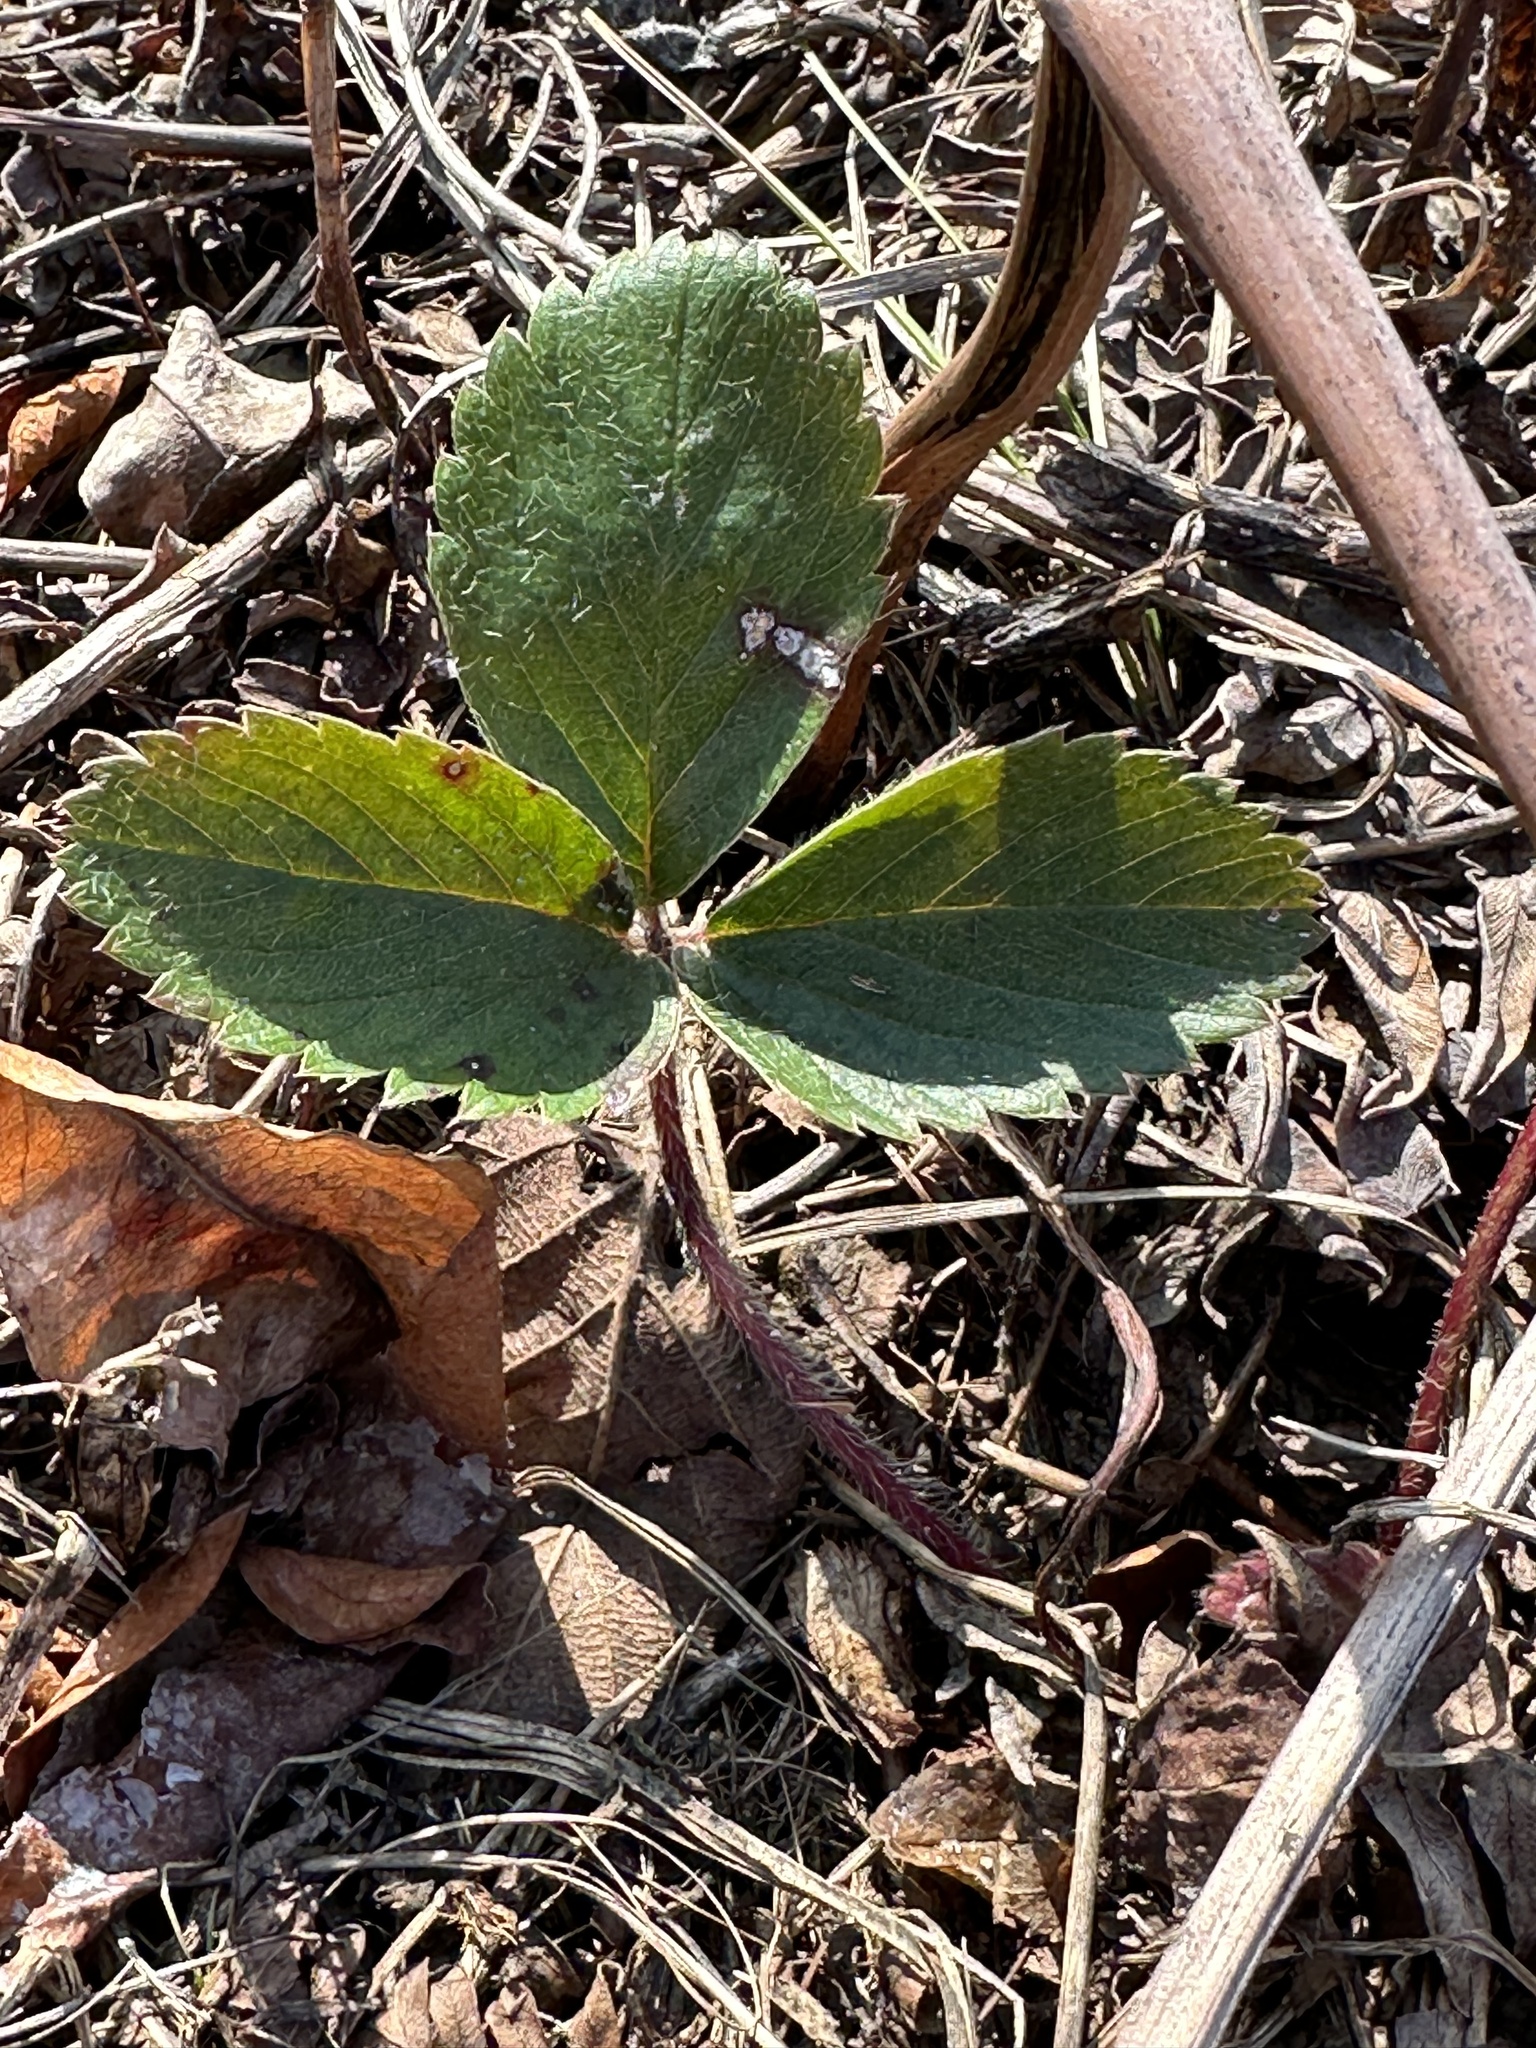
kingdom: Plantae
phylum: Tracheophyta
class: Magnoliopsida
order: Rosales
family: Rosaceae
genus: Fragaria
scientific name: Fragaria virginiana
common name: Thickleaved wild strawberry
